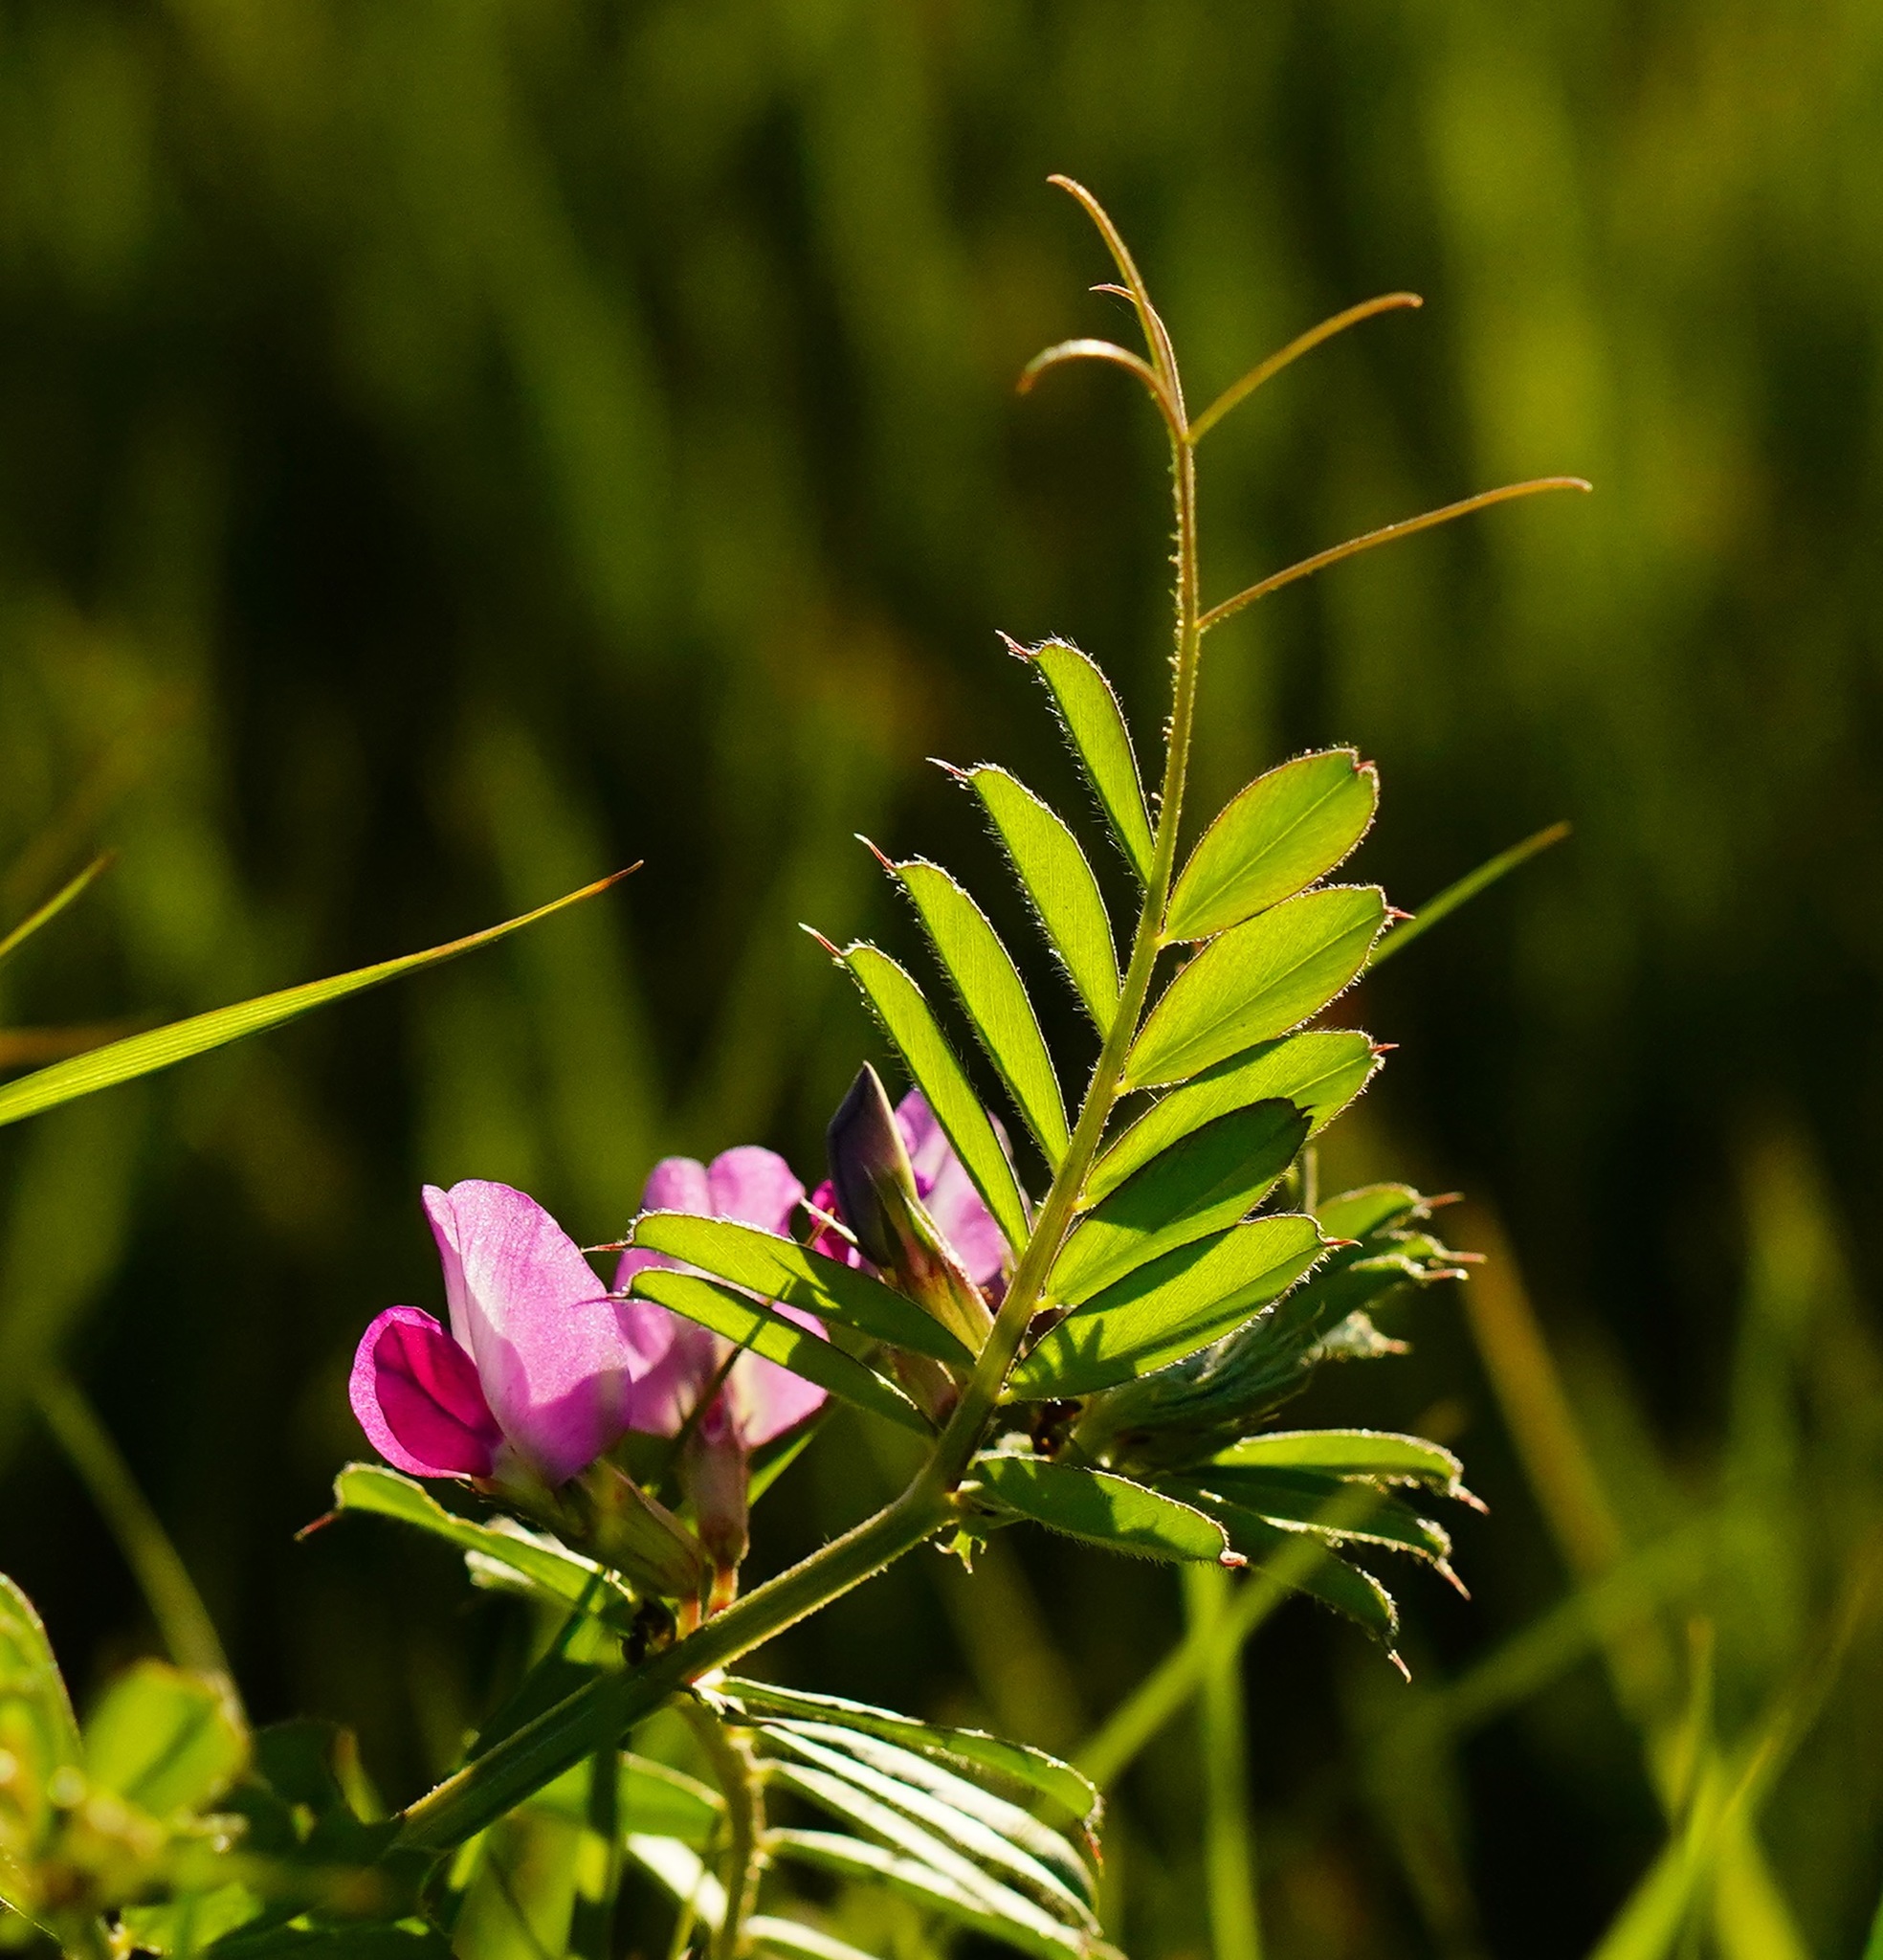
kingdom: Plantae
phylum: Tracheophyta
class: Magnoliopsida
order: Fabales
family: Fabaceae
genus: Vicia
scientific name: Vicia sativa
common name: Garden vetch
